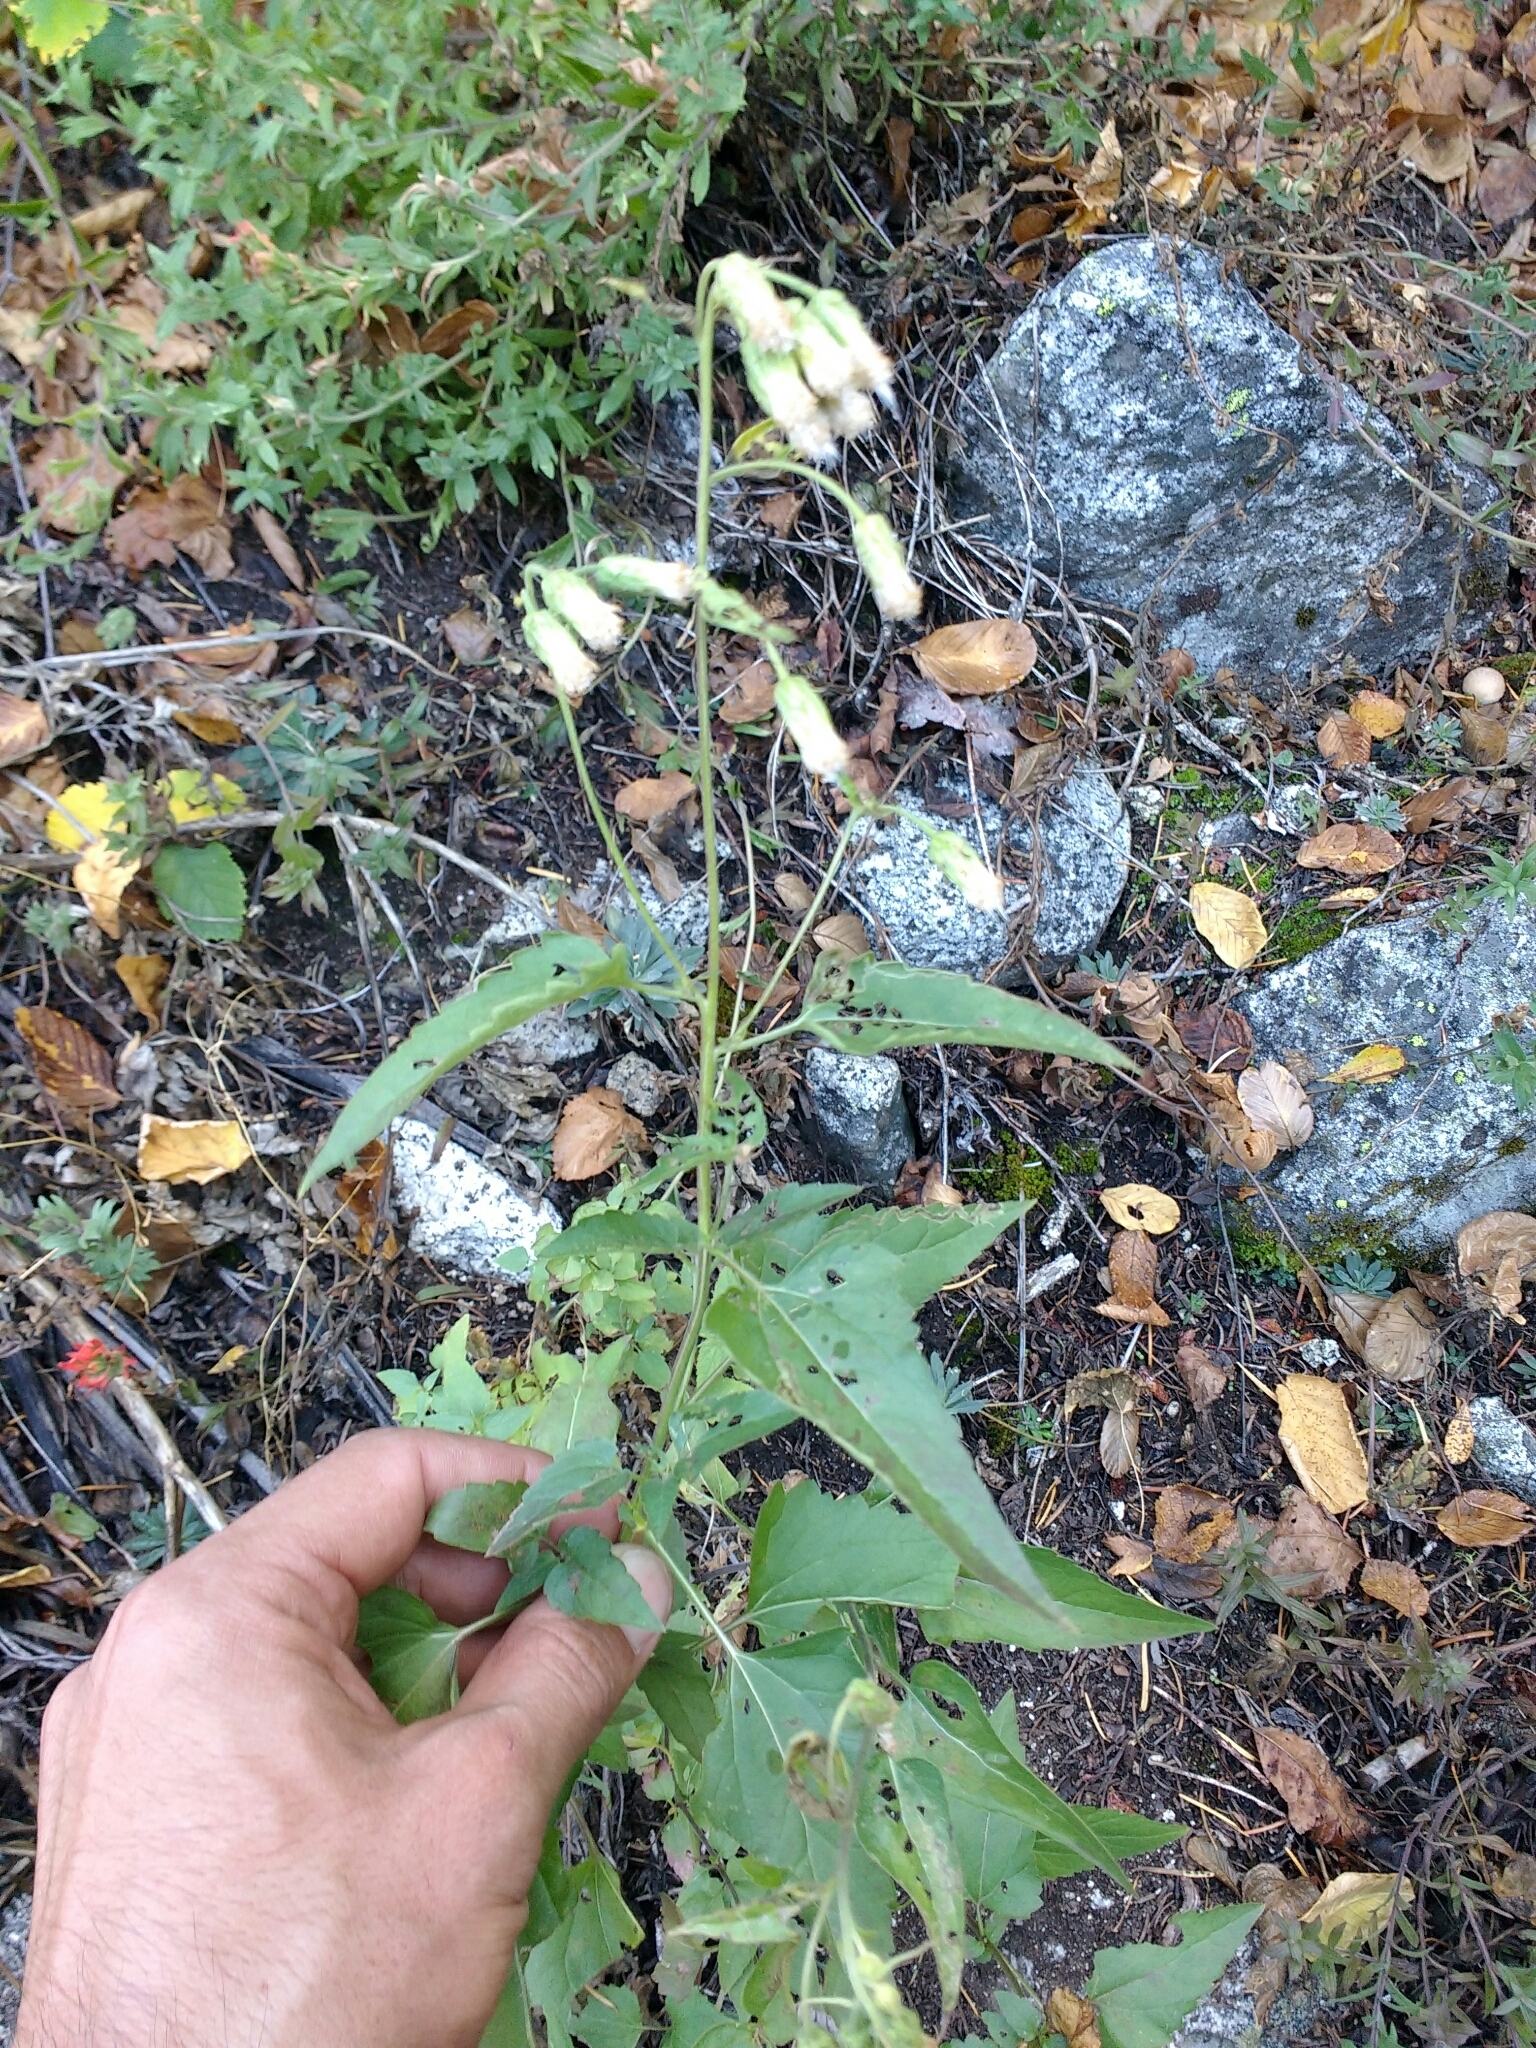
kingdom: Plantae
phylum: Tracheophyta
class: Magnoliopsida
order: Asterales
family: Asteraceae
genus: Brickellia
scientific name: Brickellia grandiflora
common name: Large-flowered brickellia
